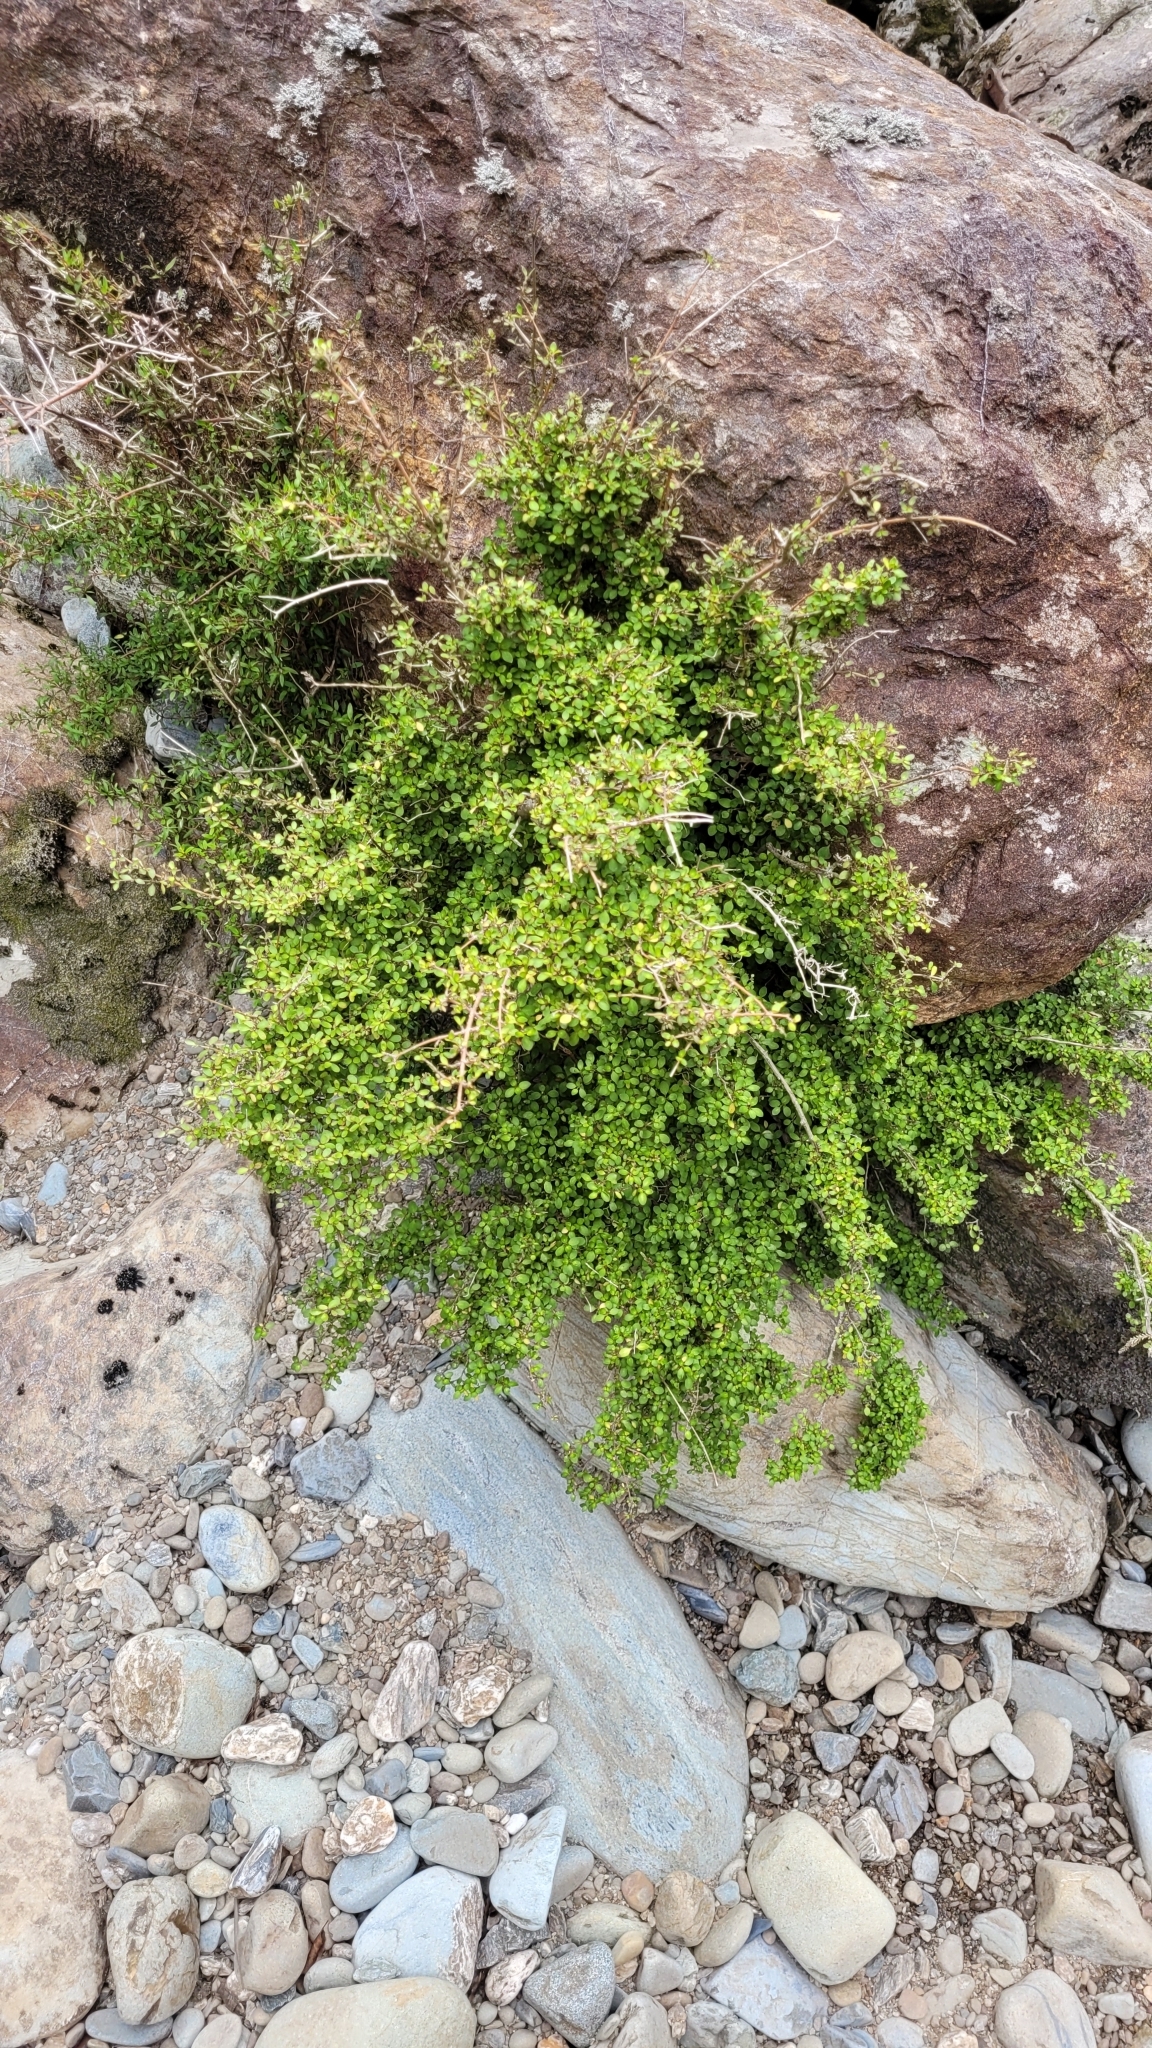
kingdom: Plantae
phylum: Tracheophyta
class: Magnoliopsida
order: Gentianales
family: Rubiaceae
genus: Coprosma
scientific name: Coprosma rhamnoides
